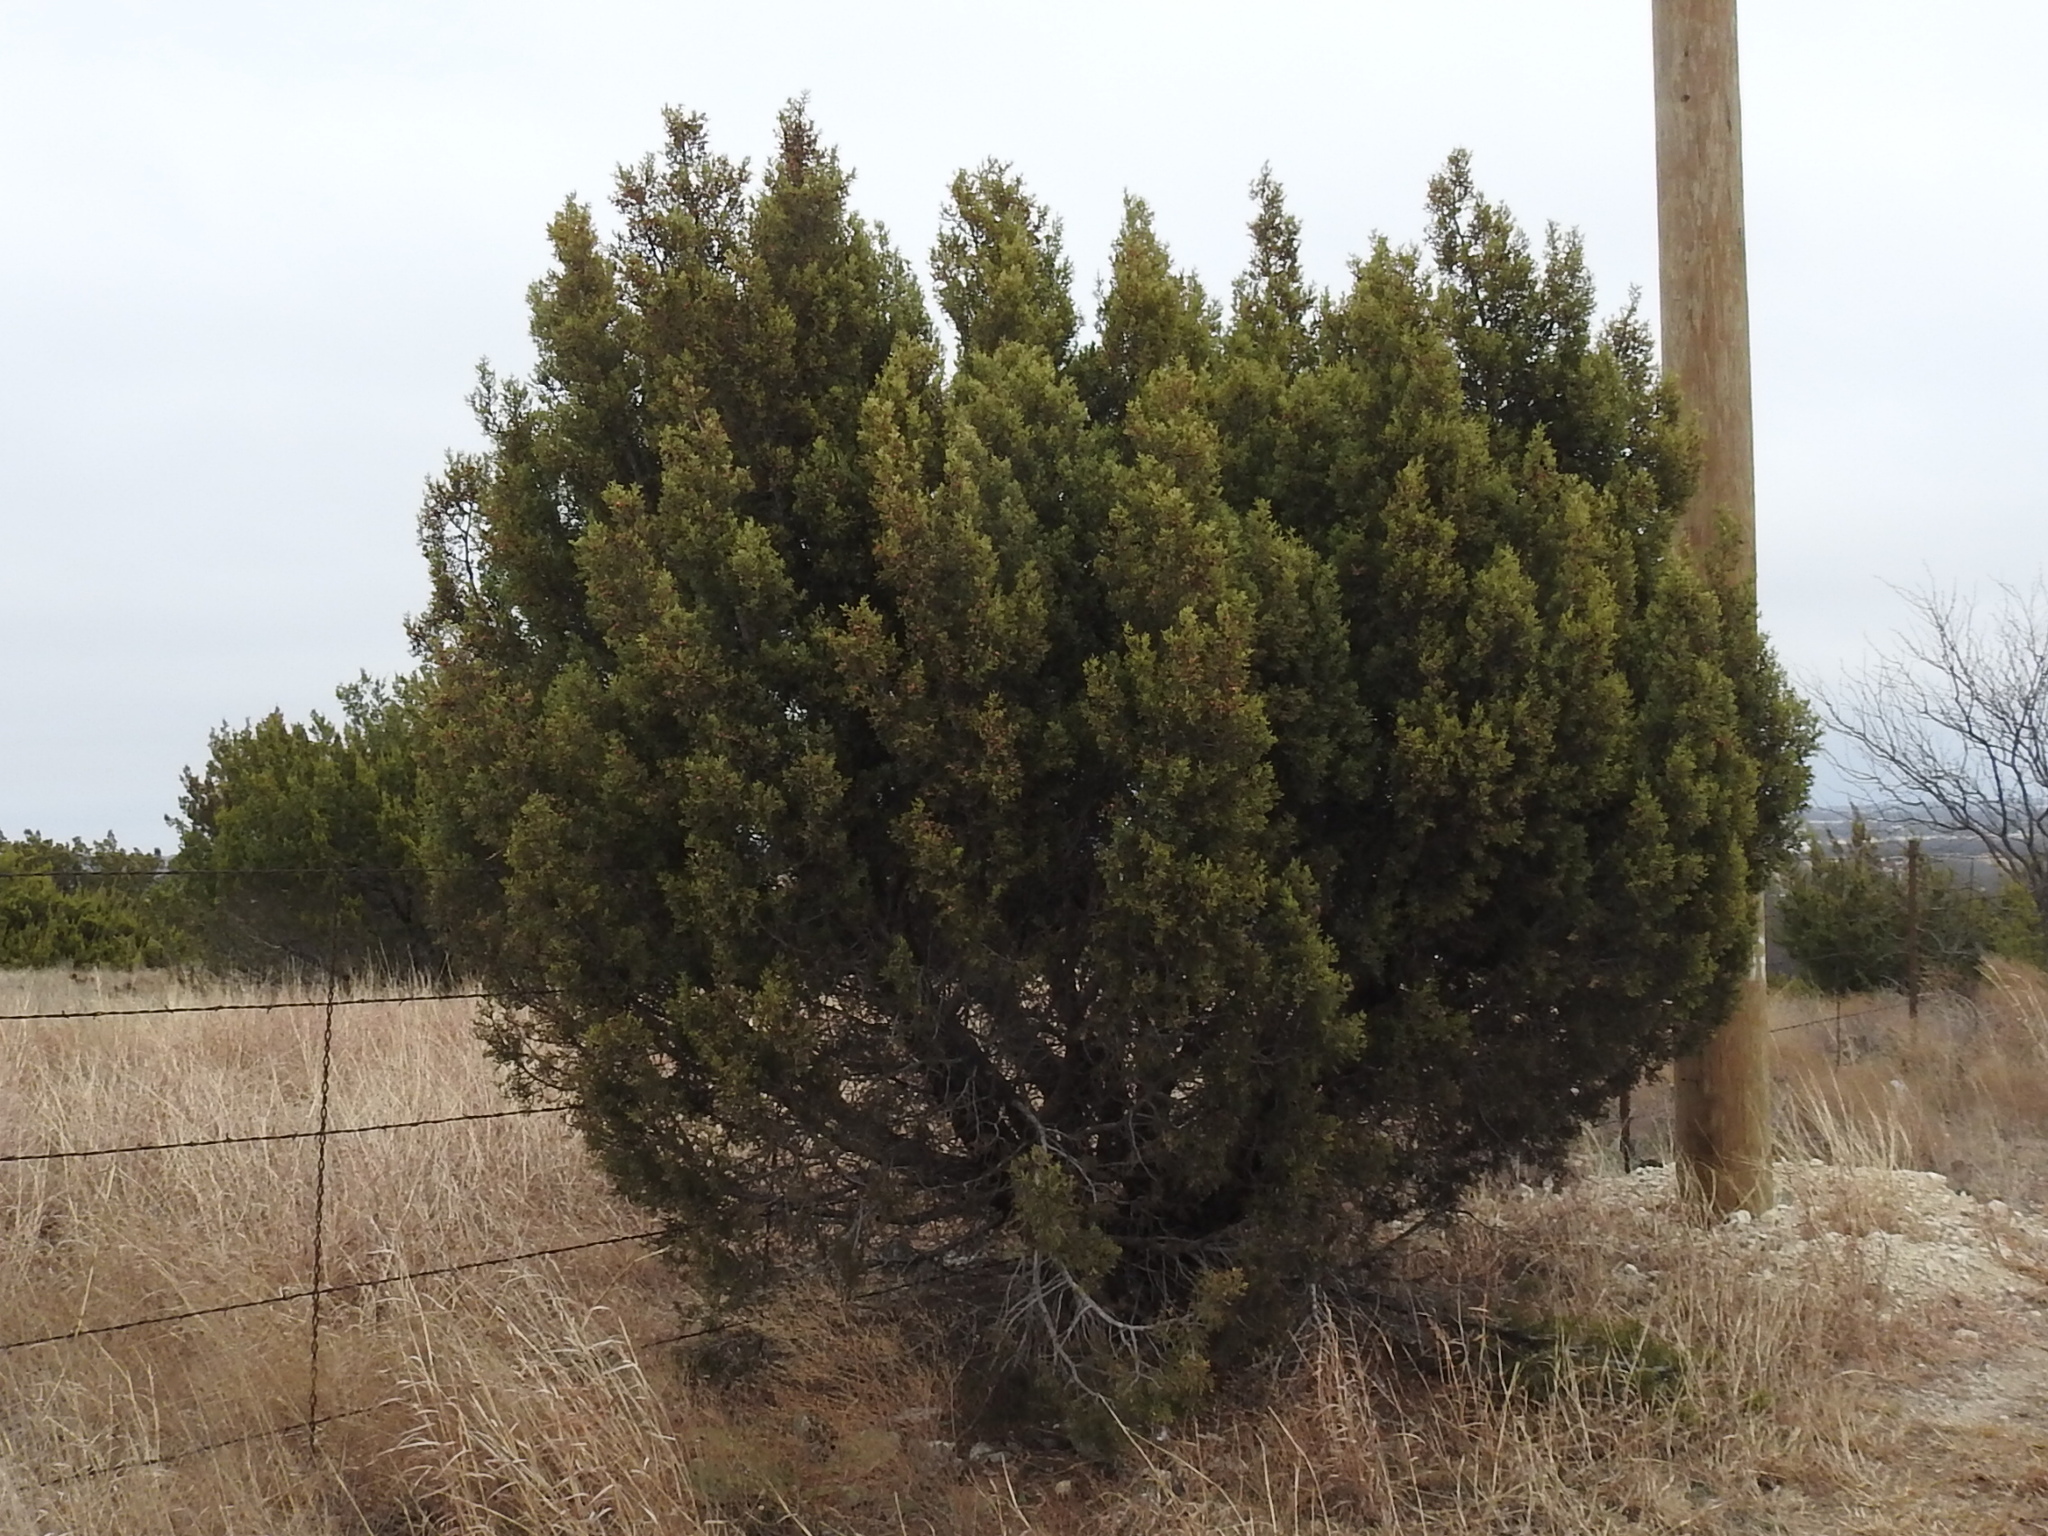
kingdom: Plantae
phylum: Tracheophyta
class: Pinopsida
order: Pinales
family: Cupressaceae
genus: Juniperus
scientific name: Juniperus pinchotii
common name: Pinchot juniper
